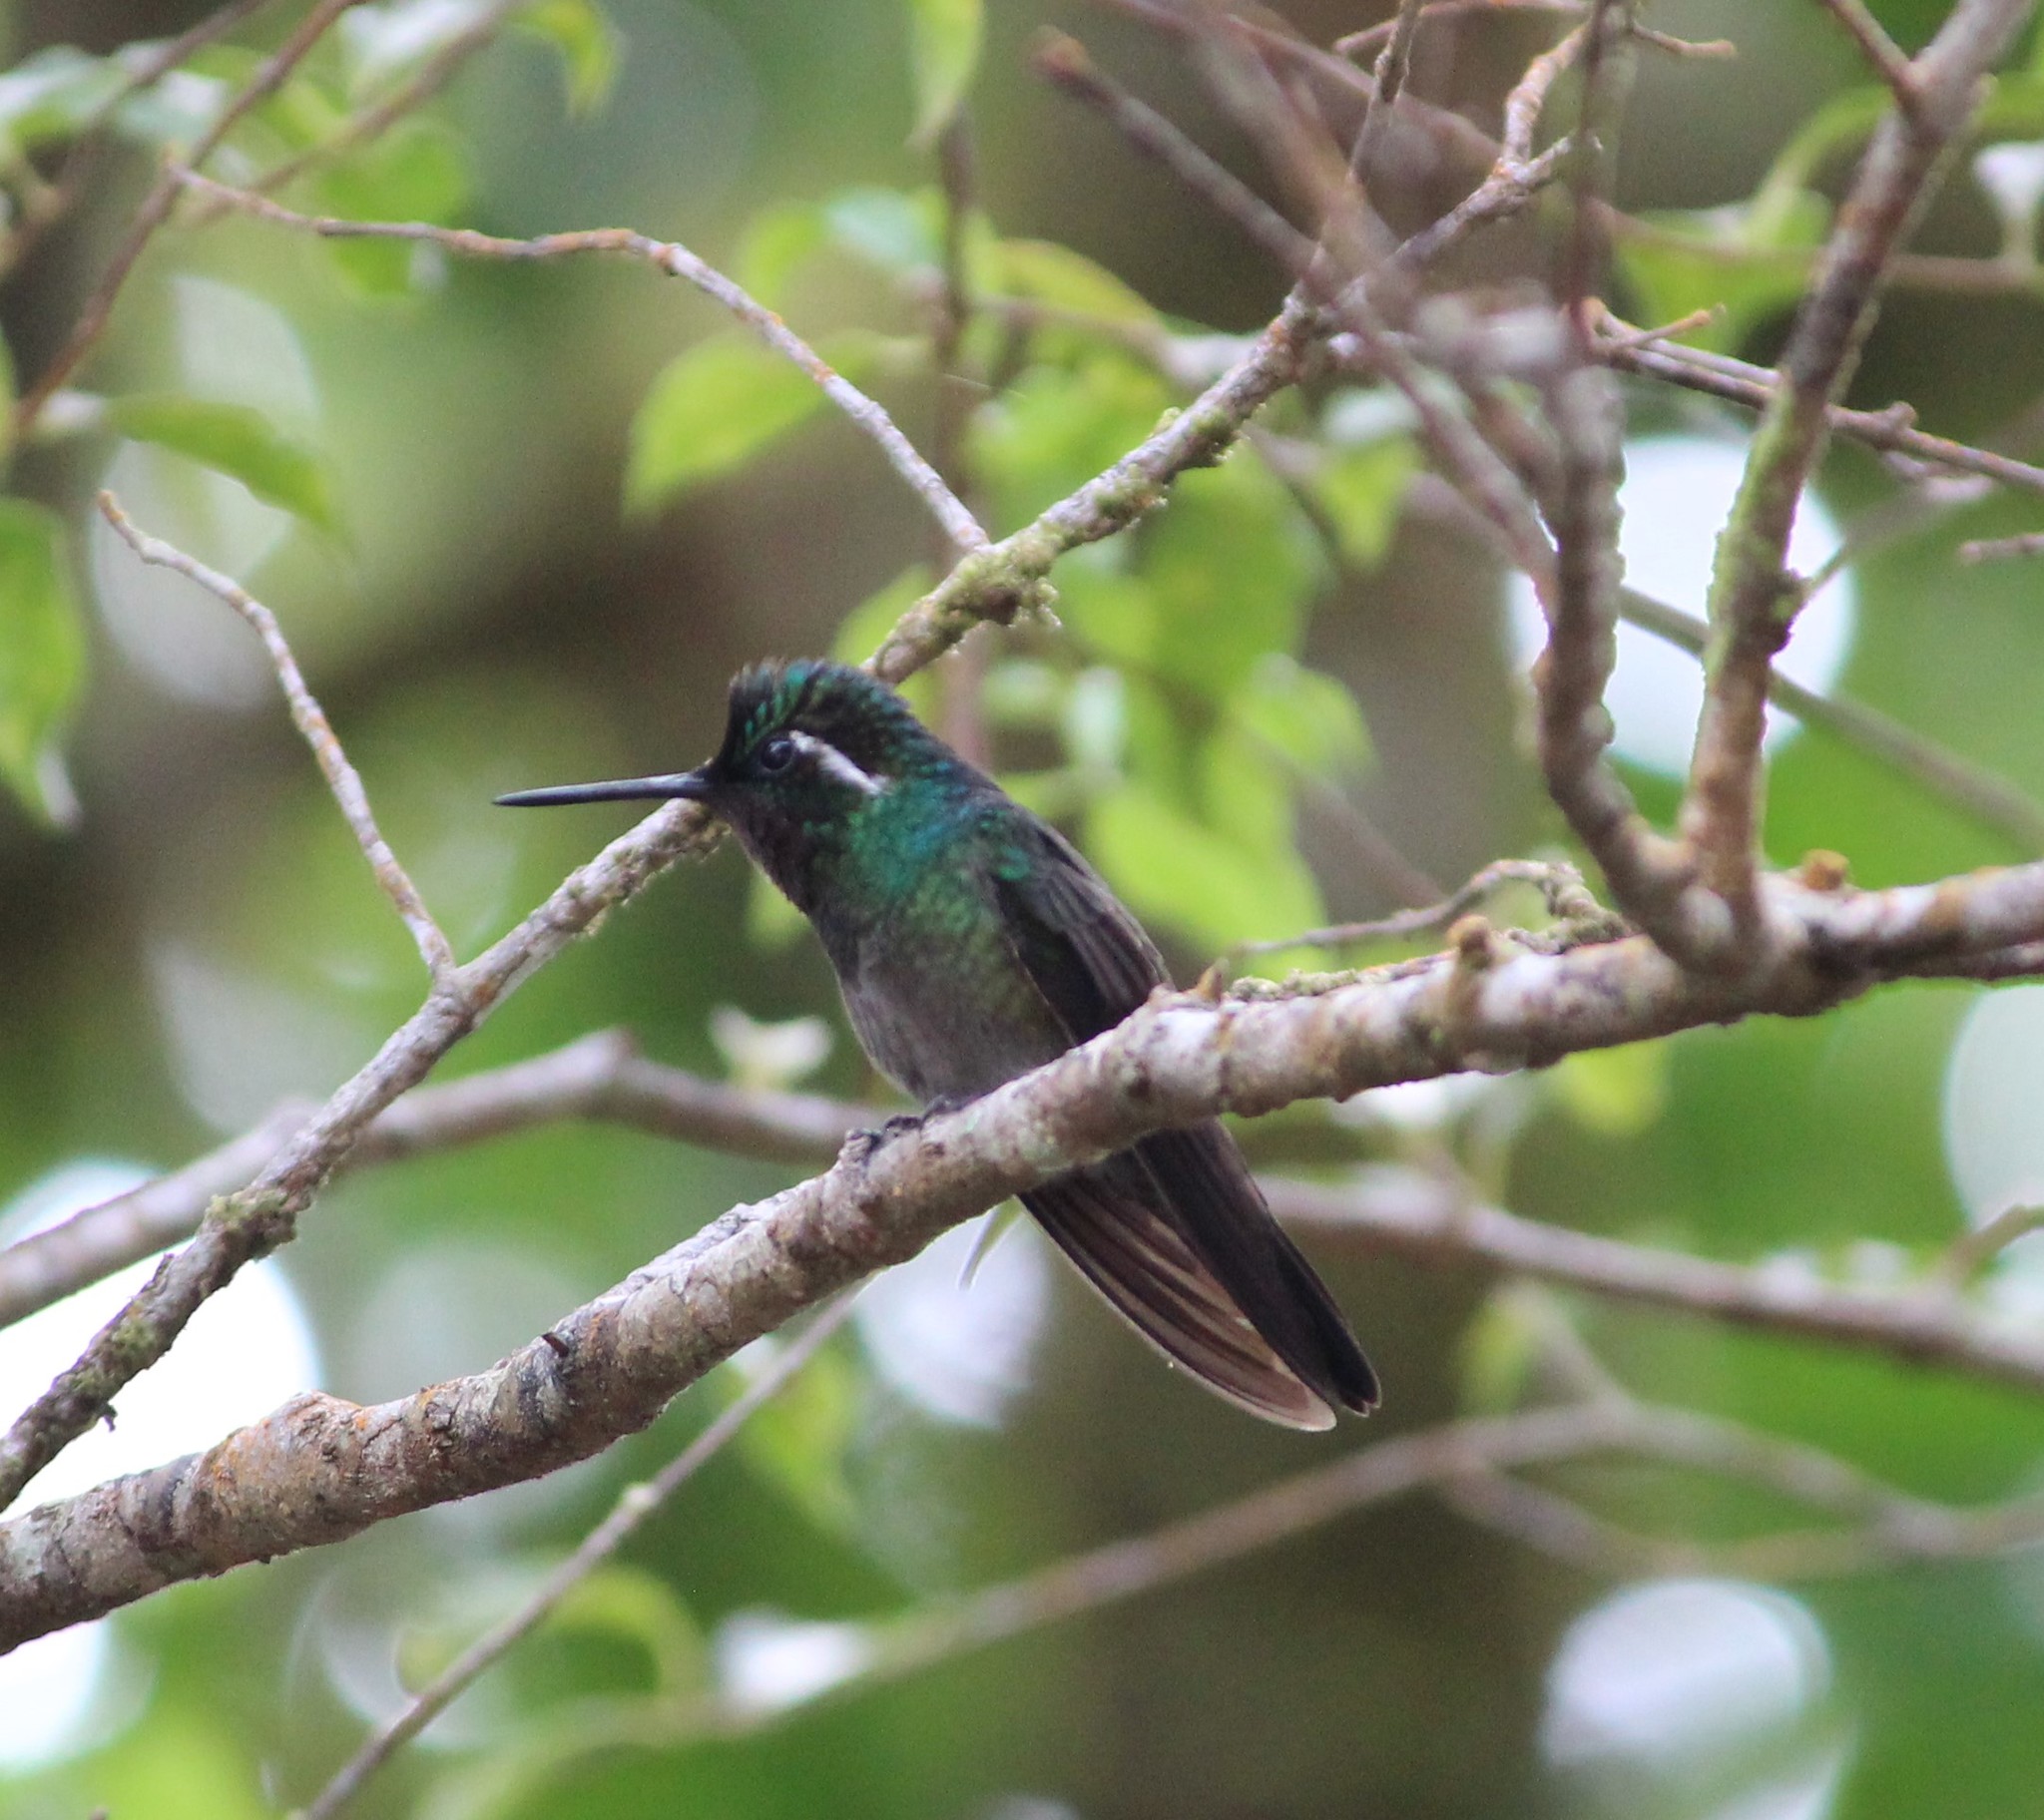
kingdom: Animalia
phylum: Chordata
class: Aves
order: Apodiformes
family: Trochilidae
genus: Lampornis
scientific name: Lampornis calolaemus
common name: Purple-throated mountain-gem
